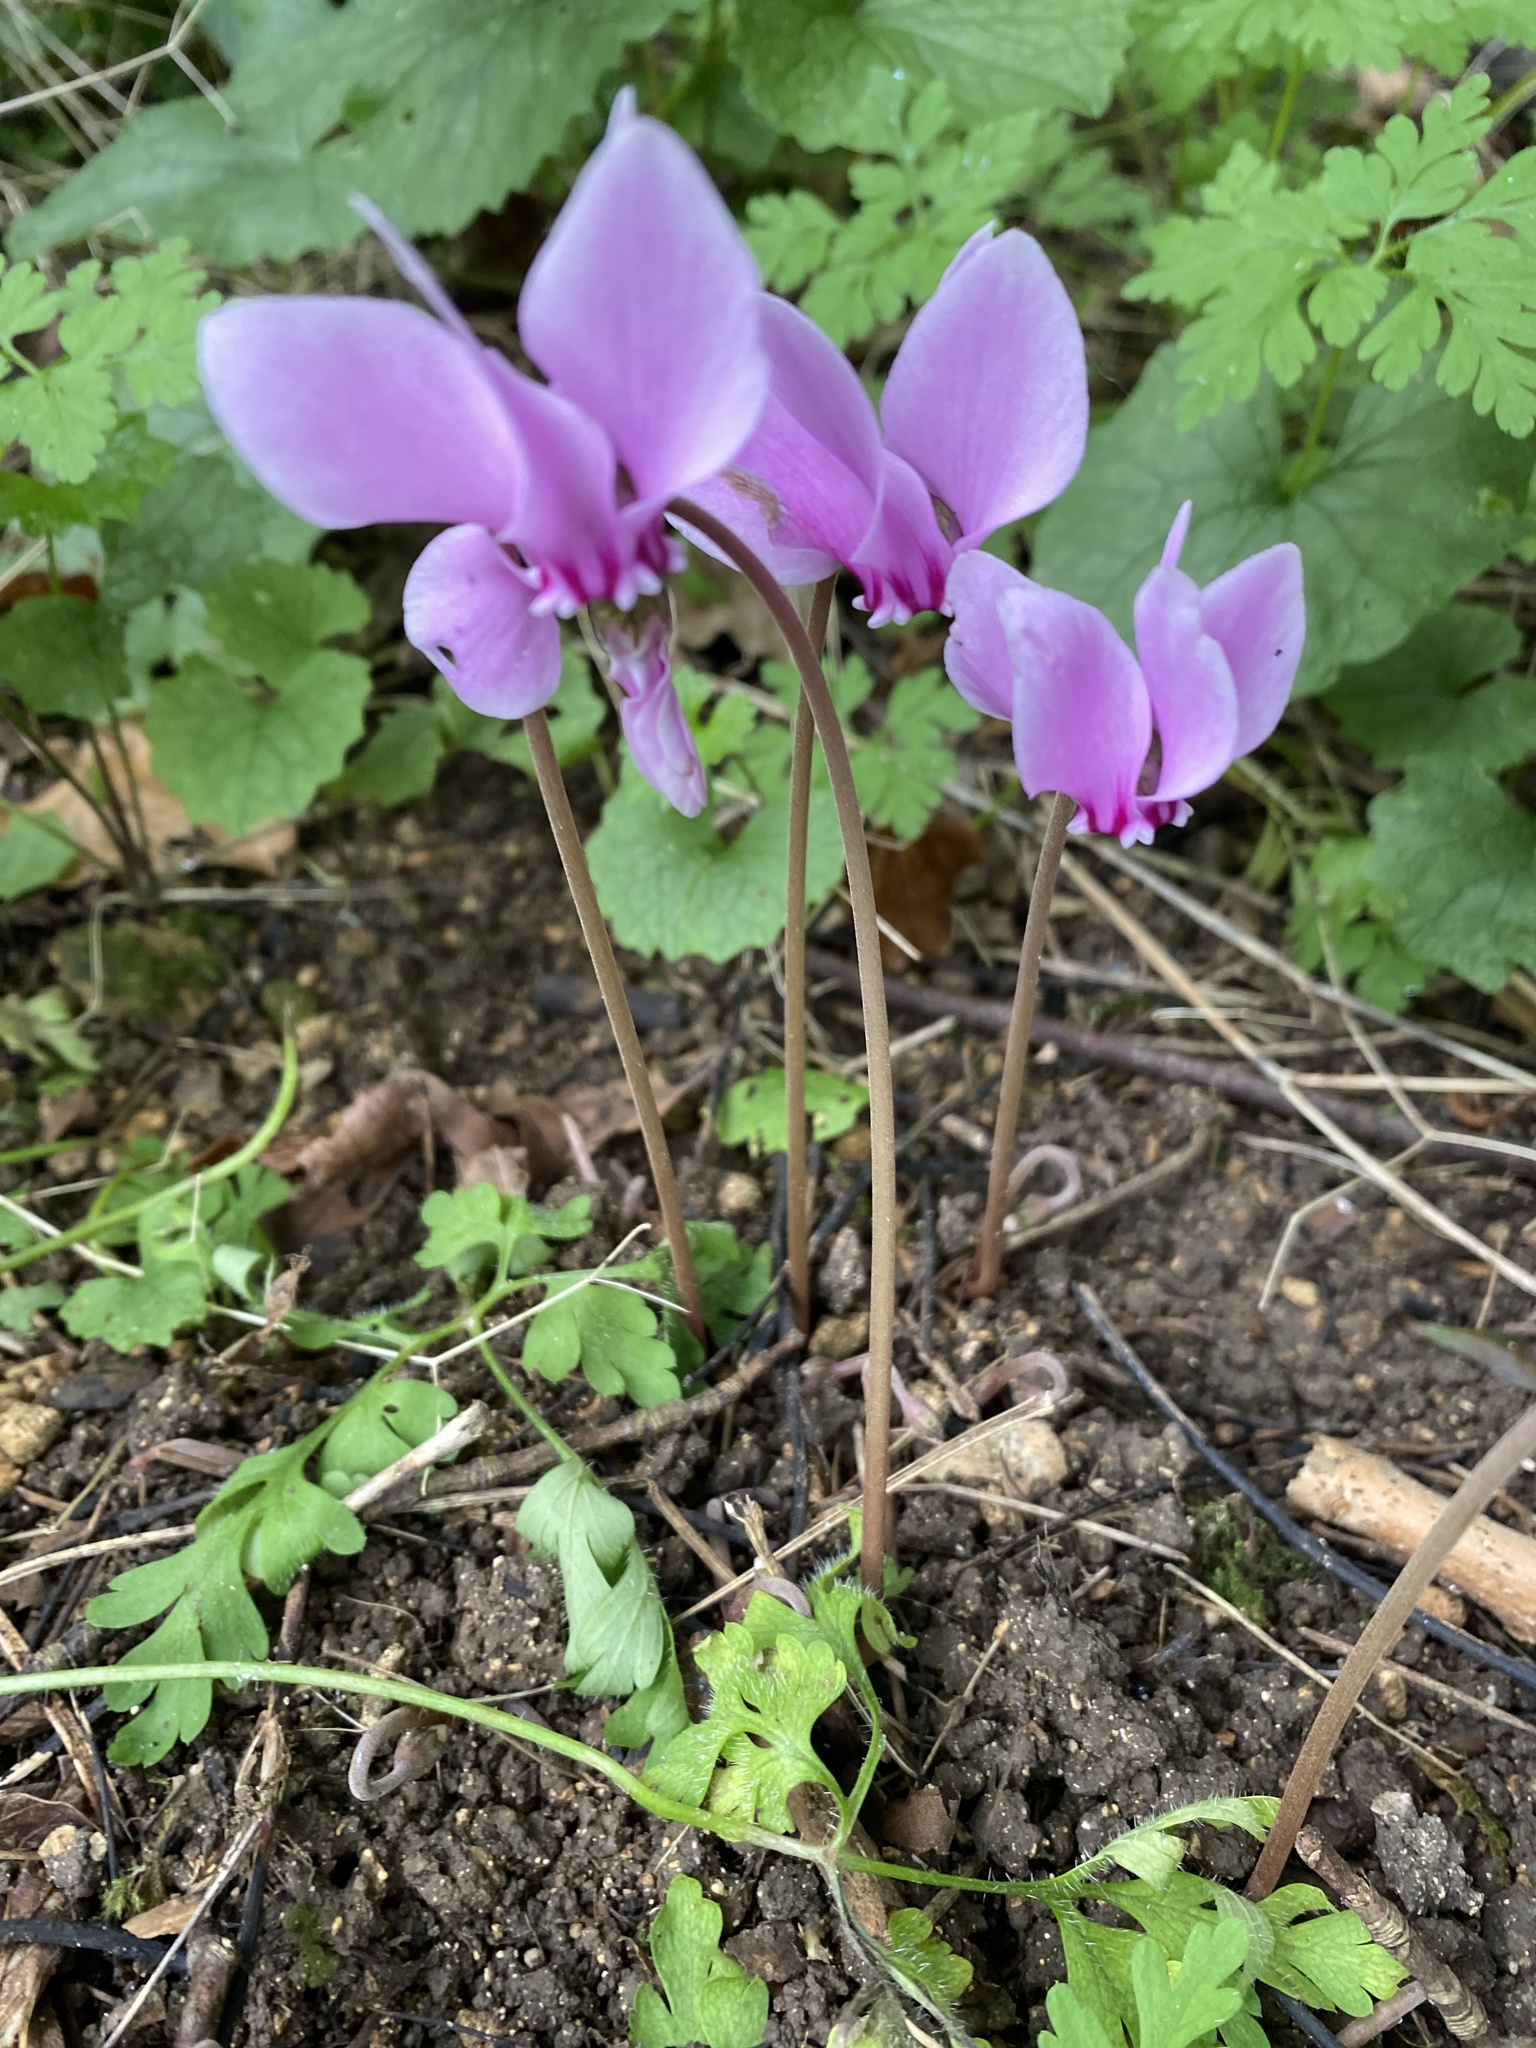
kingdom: Plantae
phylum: Tracheophyta
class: Magnoliopsida
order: Ericales
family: Primulaceae
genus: Cyclamen
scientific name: Cyclamen hederifolium
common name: Sowbread
